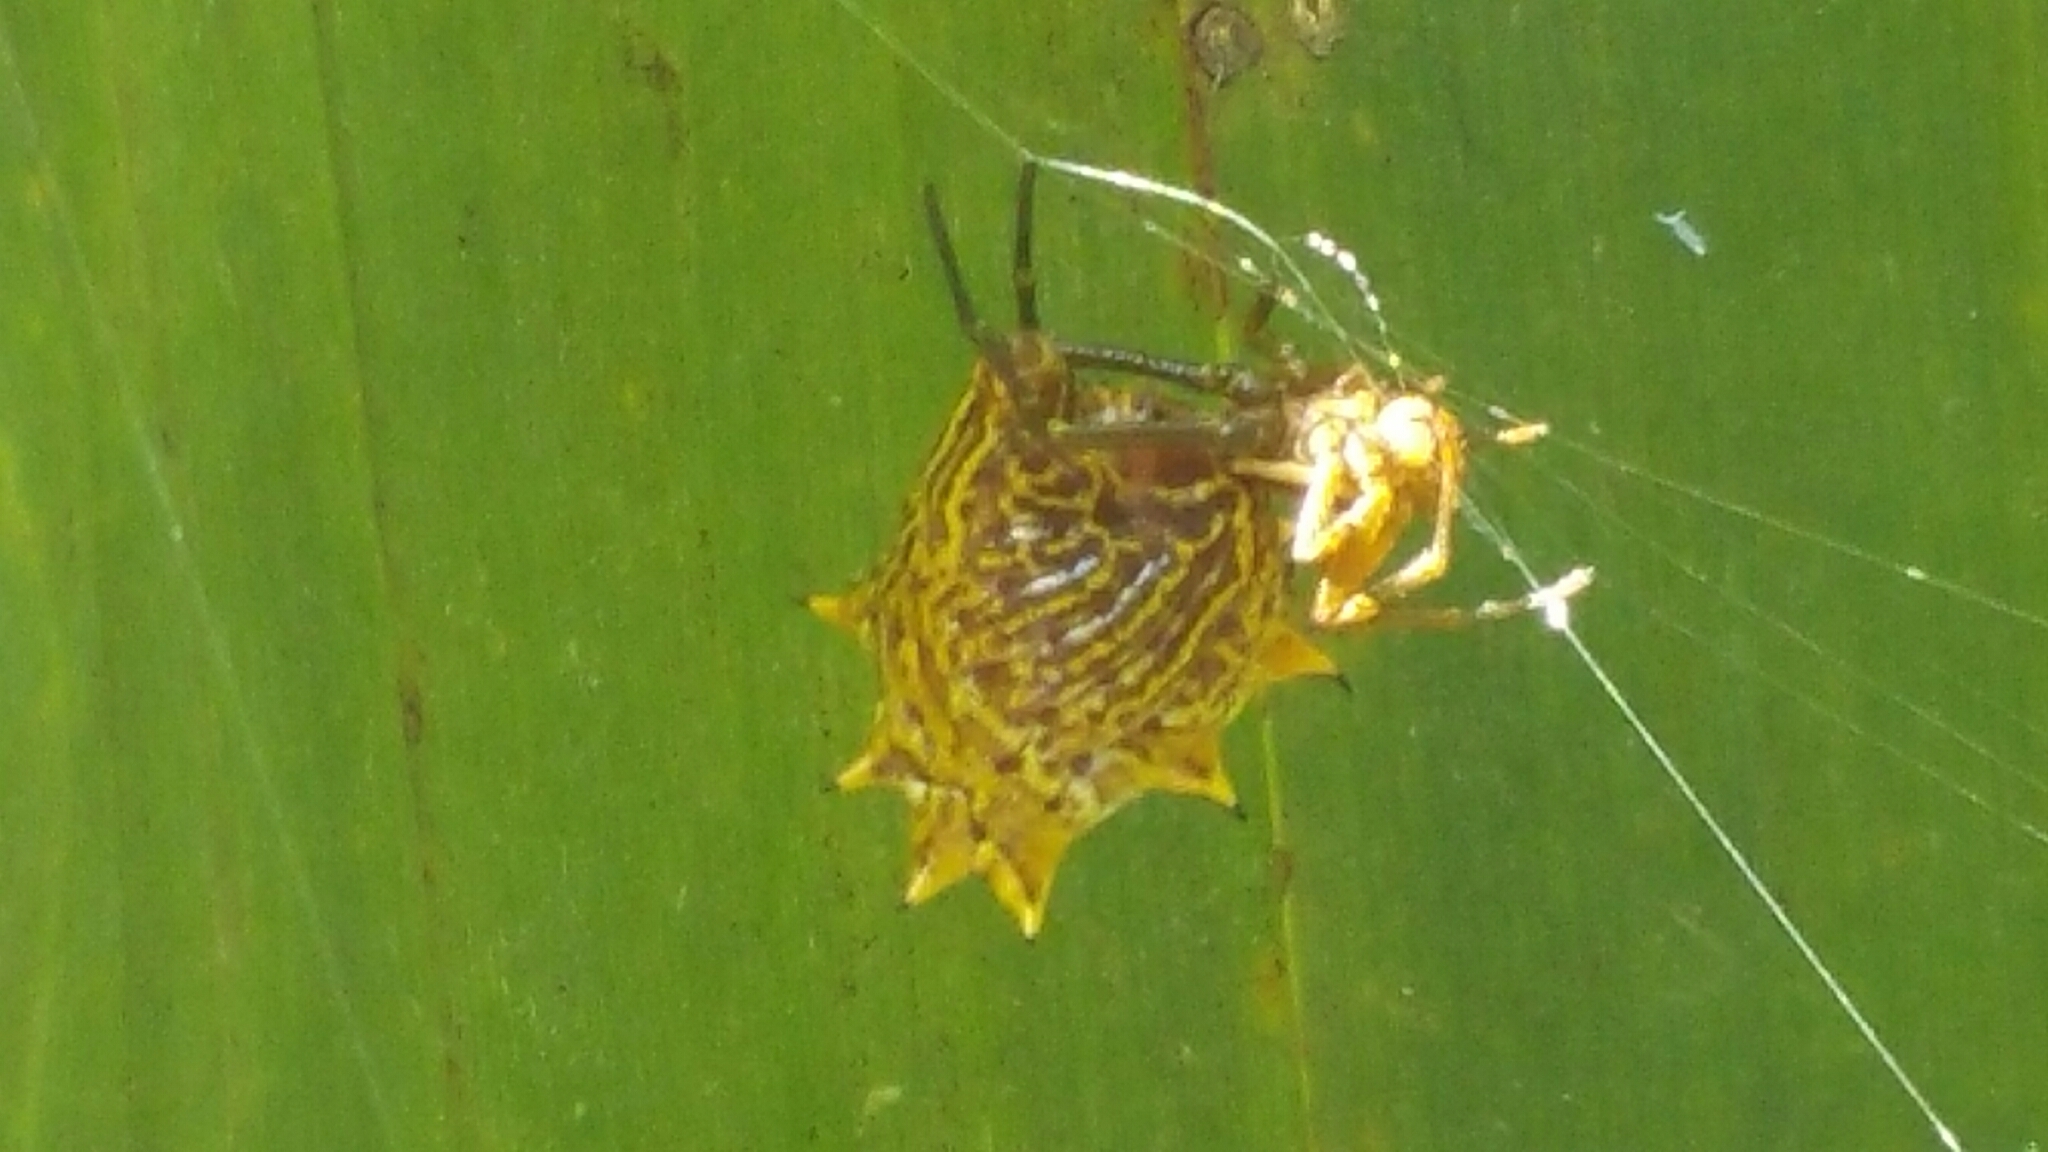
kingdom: Animalia
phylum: Arthropoda
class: Arachnida
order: Araneae
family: Araneidae
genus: Micrathena
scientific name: Micrathena gracilis
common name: Orb weavers
